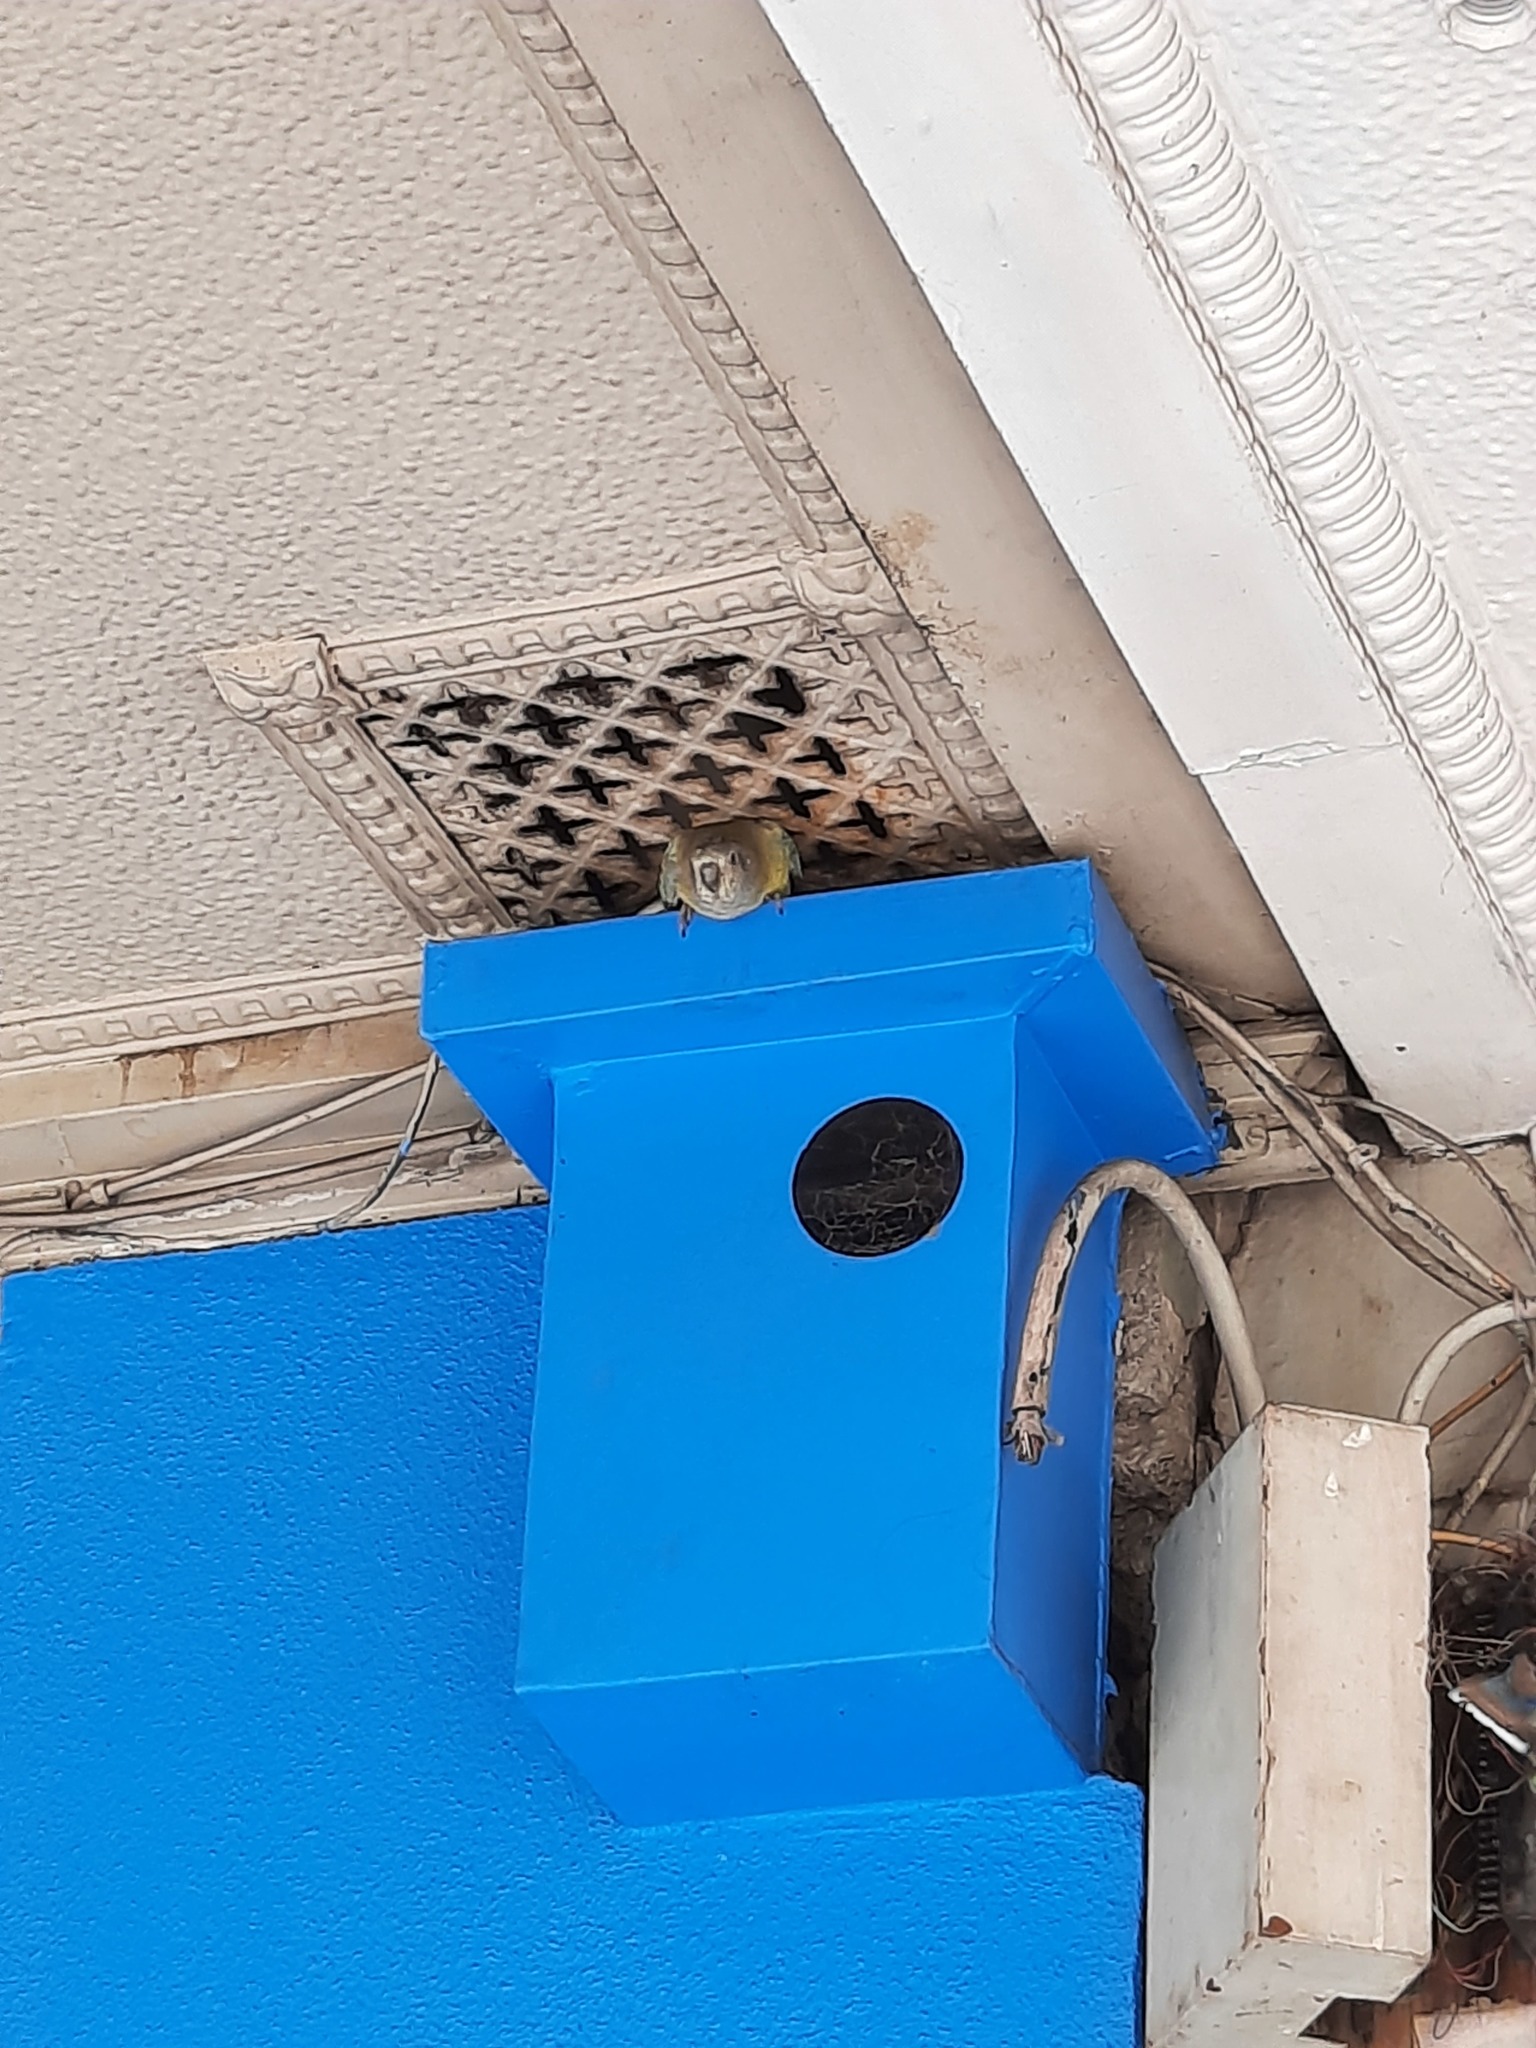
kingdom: Animalia
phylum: Chordata
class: Aves
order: Psittaciformes
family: Psittacidae
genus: Psephotus
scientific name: Psephotus haematonotus
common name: Red-rumped parrot
